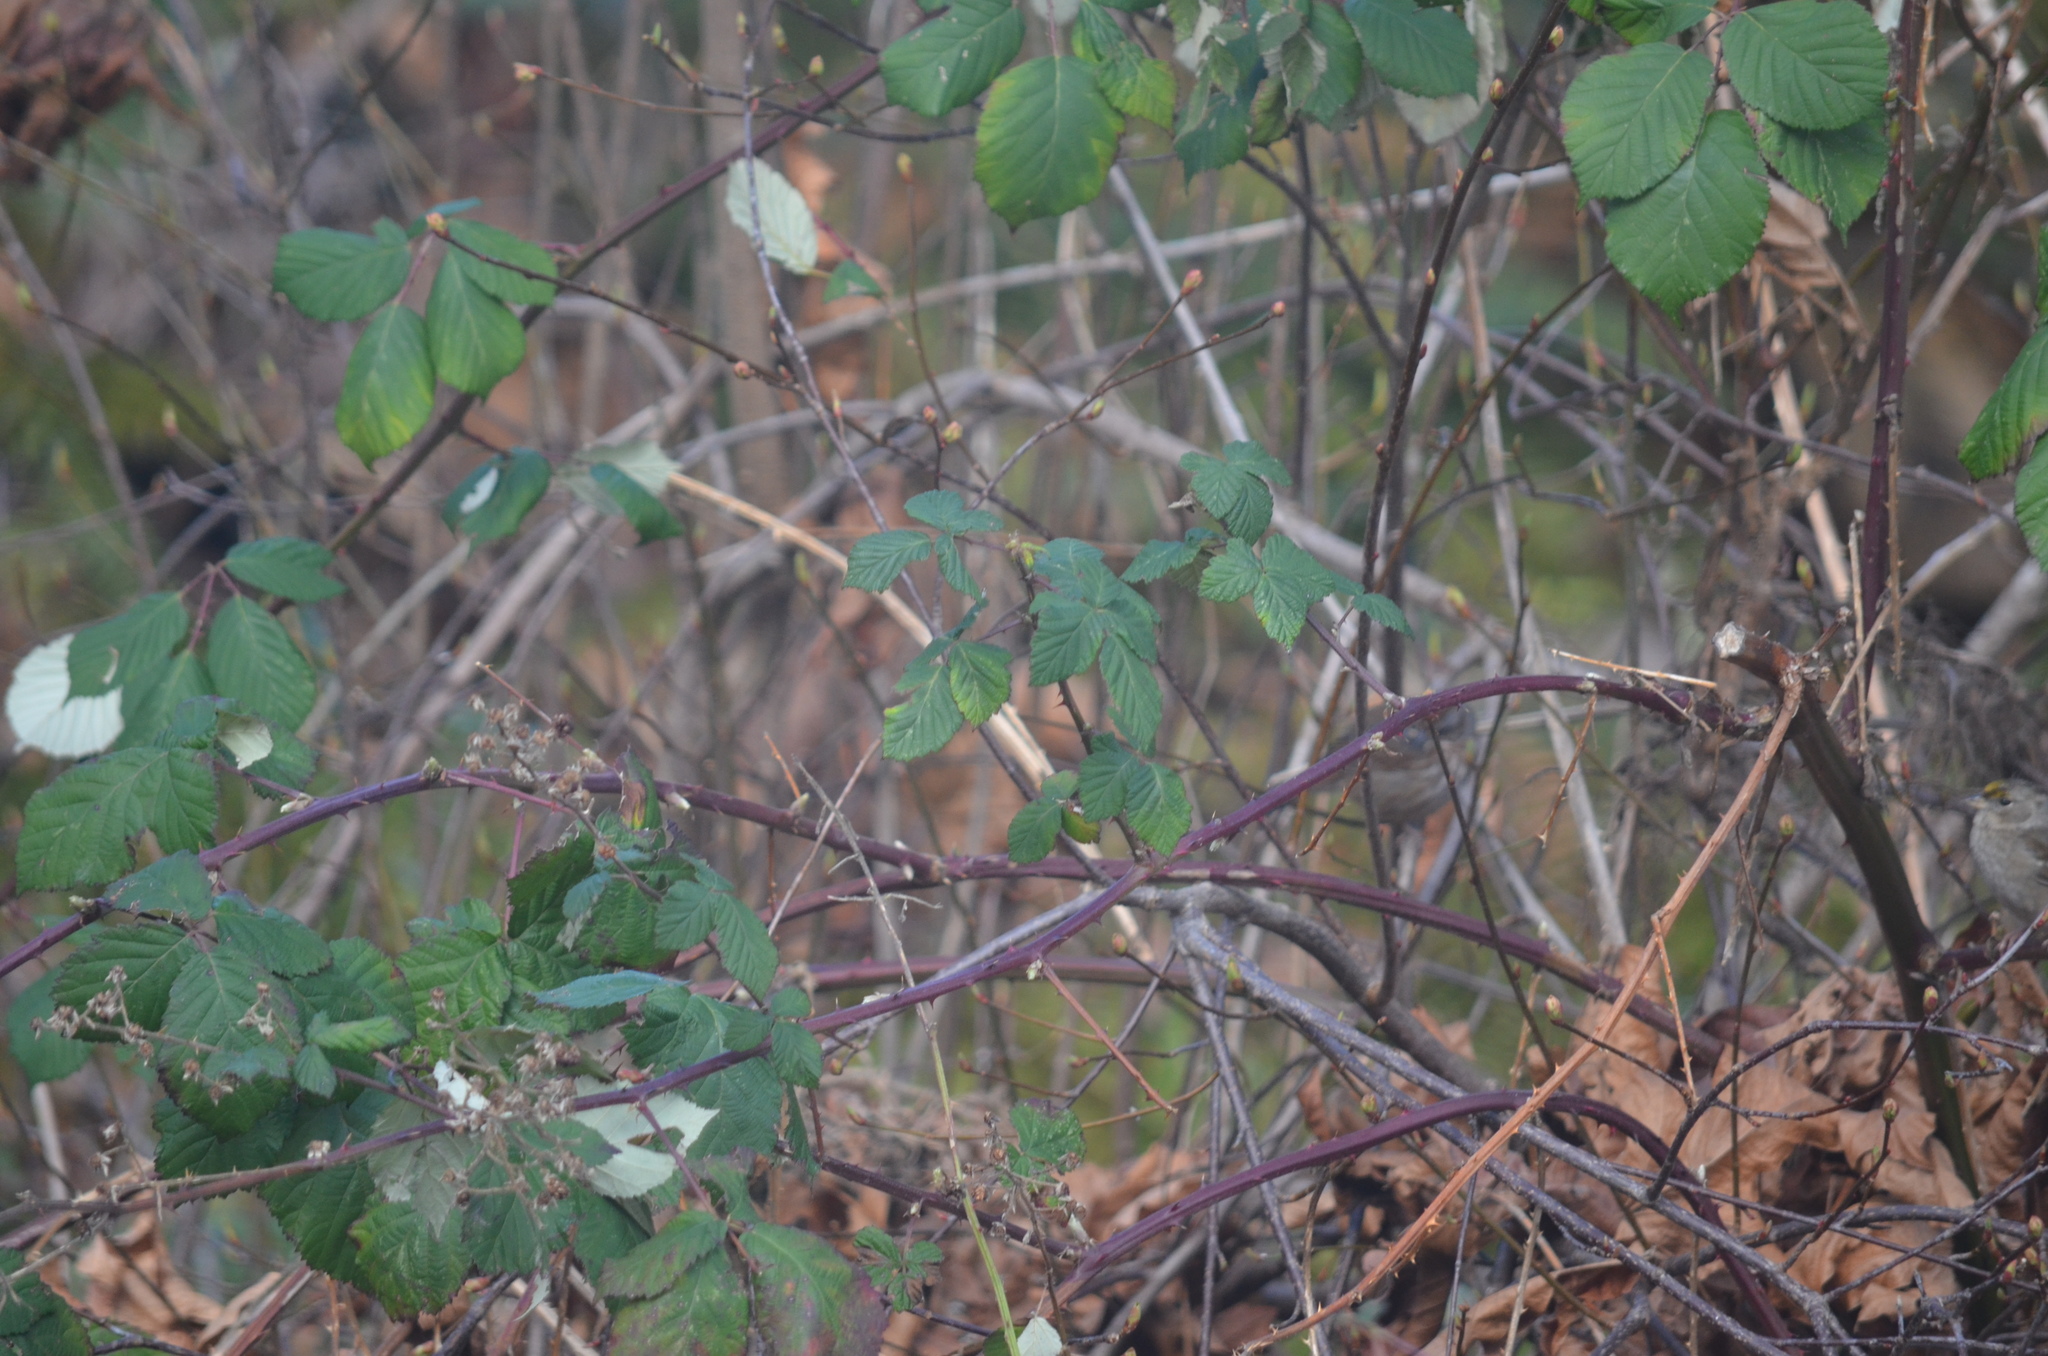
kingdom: Animalia
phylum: Chordata
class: Aves
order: Passeriformes
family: Passerellidae
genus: Melospiza
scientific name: Melospiza melodia
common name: Song sparrow
